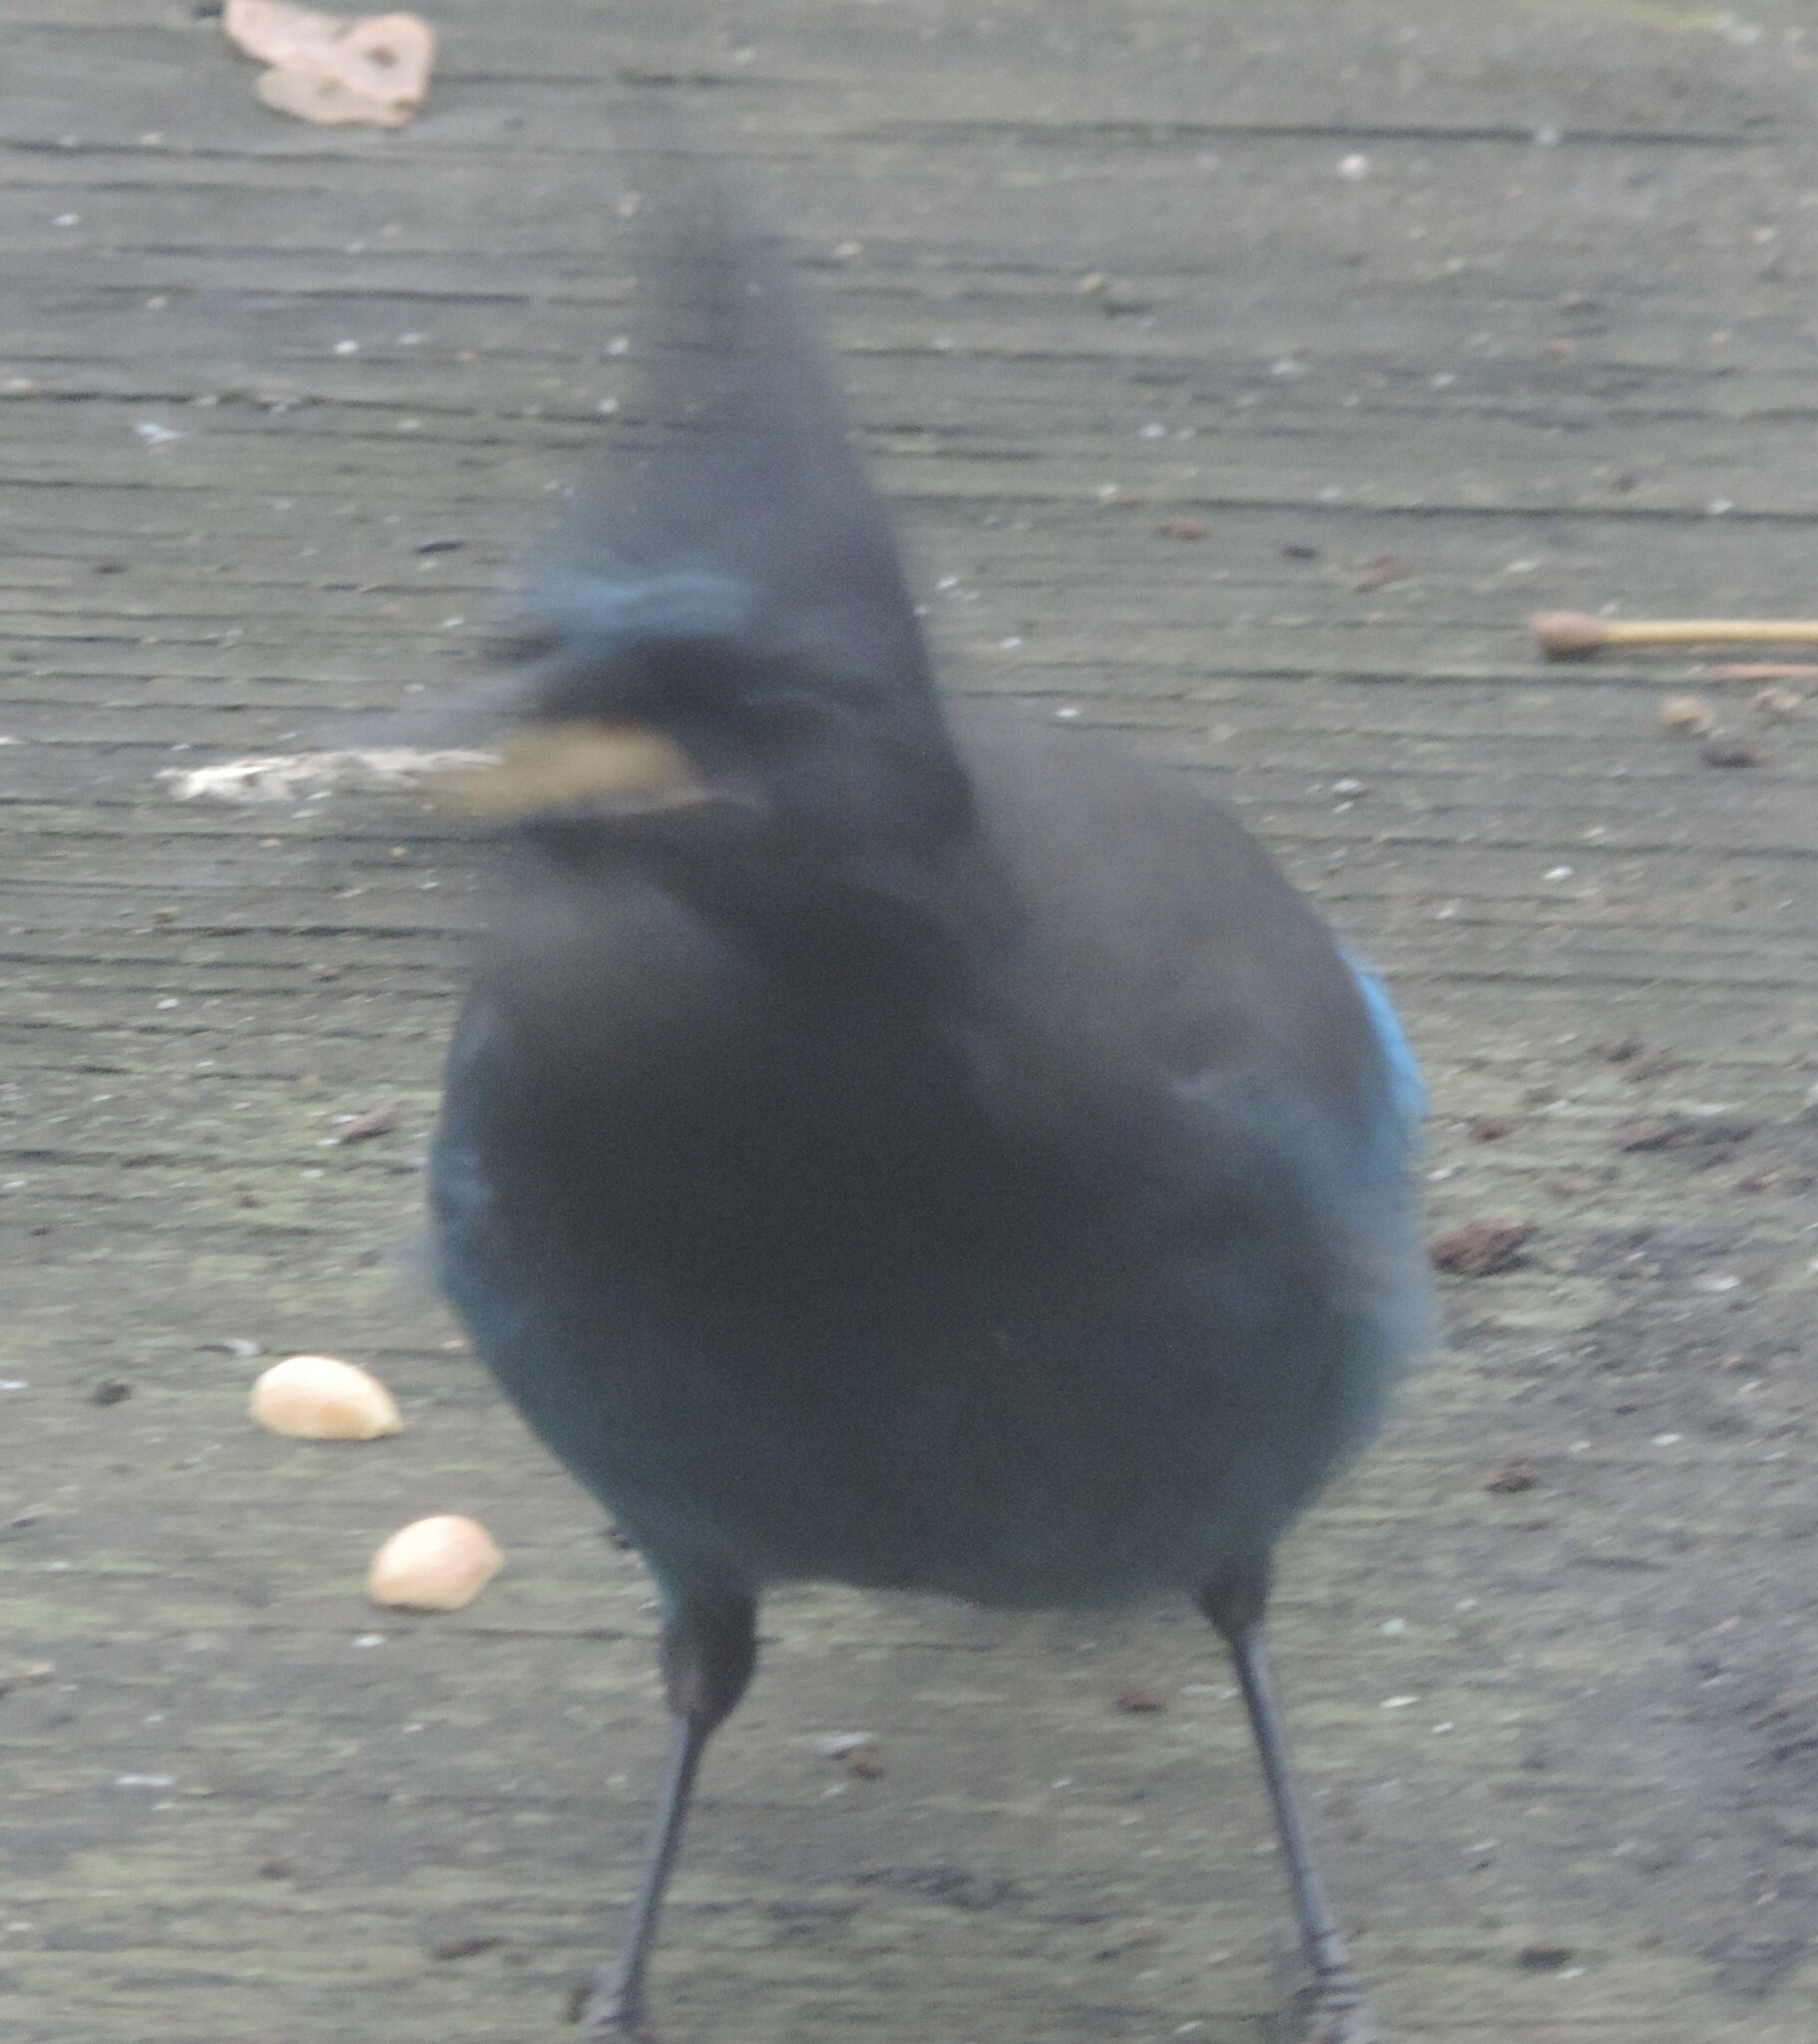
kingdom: Animalia
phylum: Chordata
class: Aves
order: Passeriformes
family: Corvidae
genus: Cyanocitta
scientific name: Cyanocitta stelleri
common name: Steller's jay
